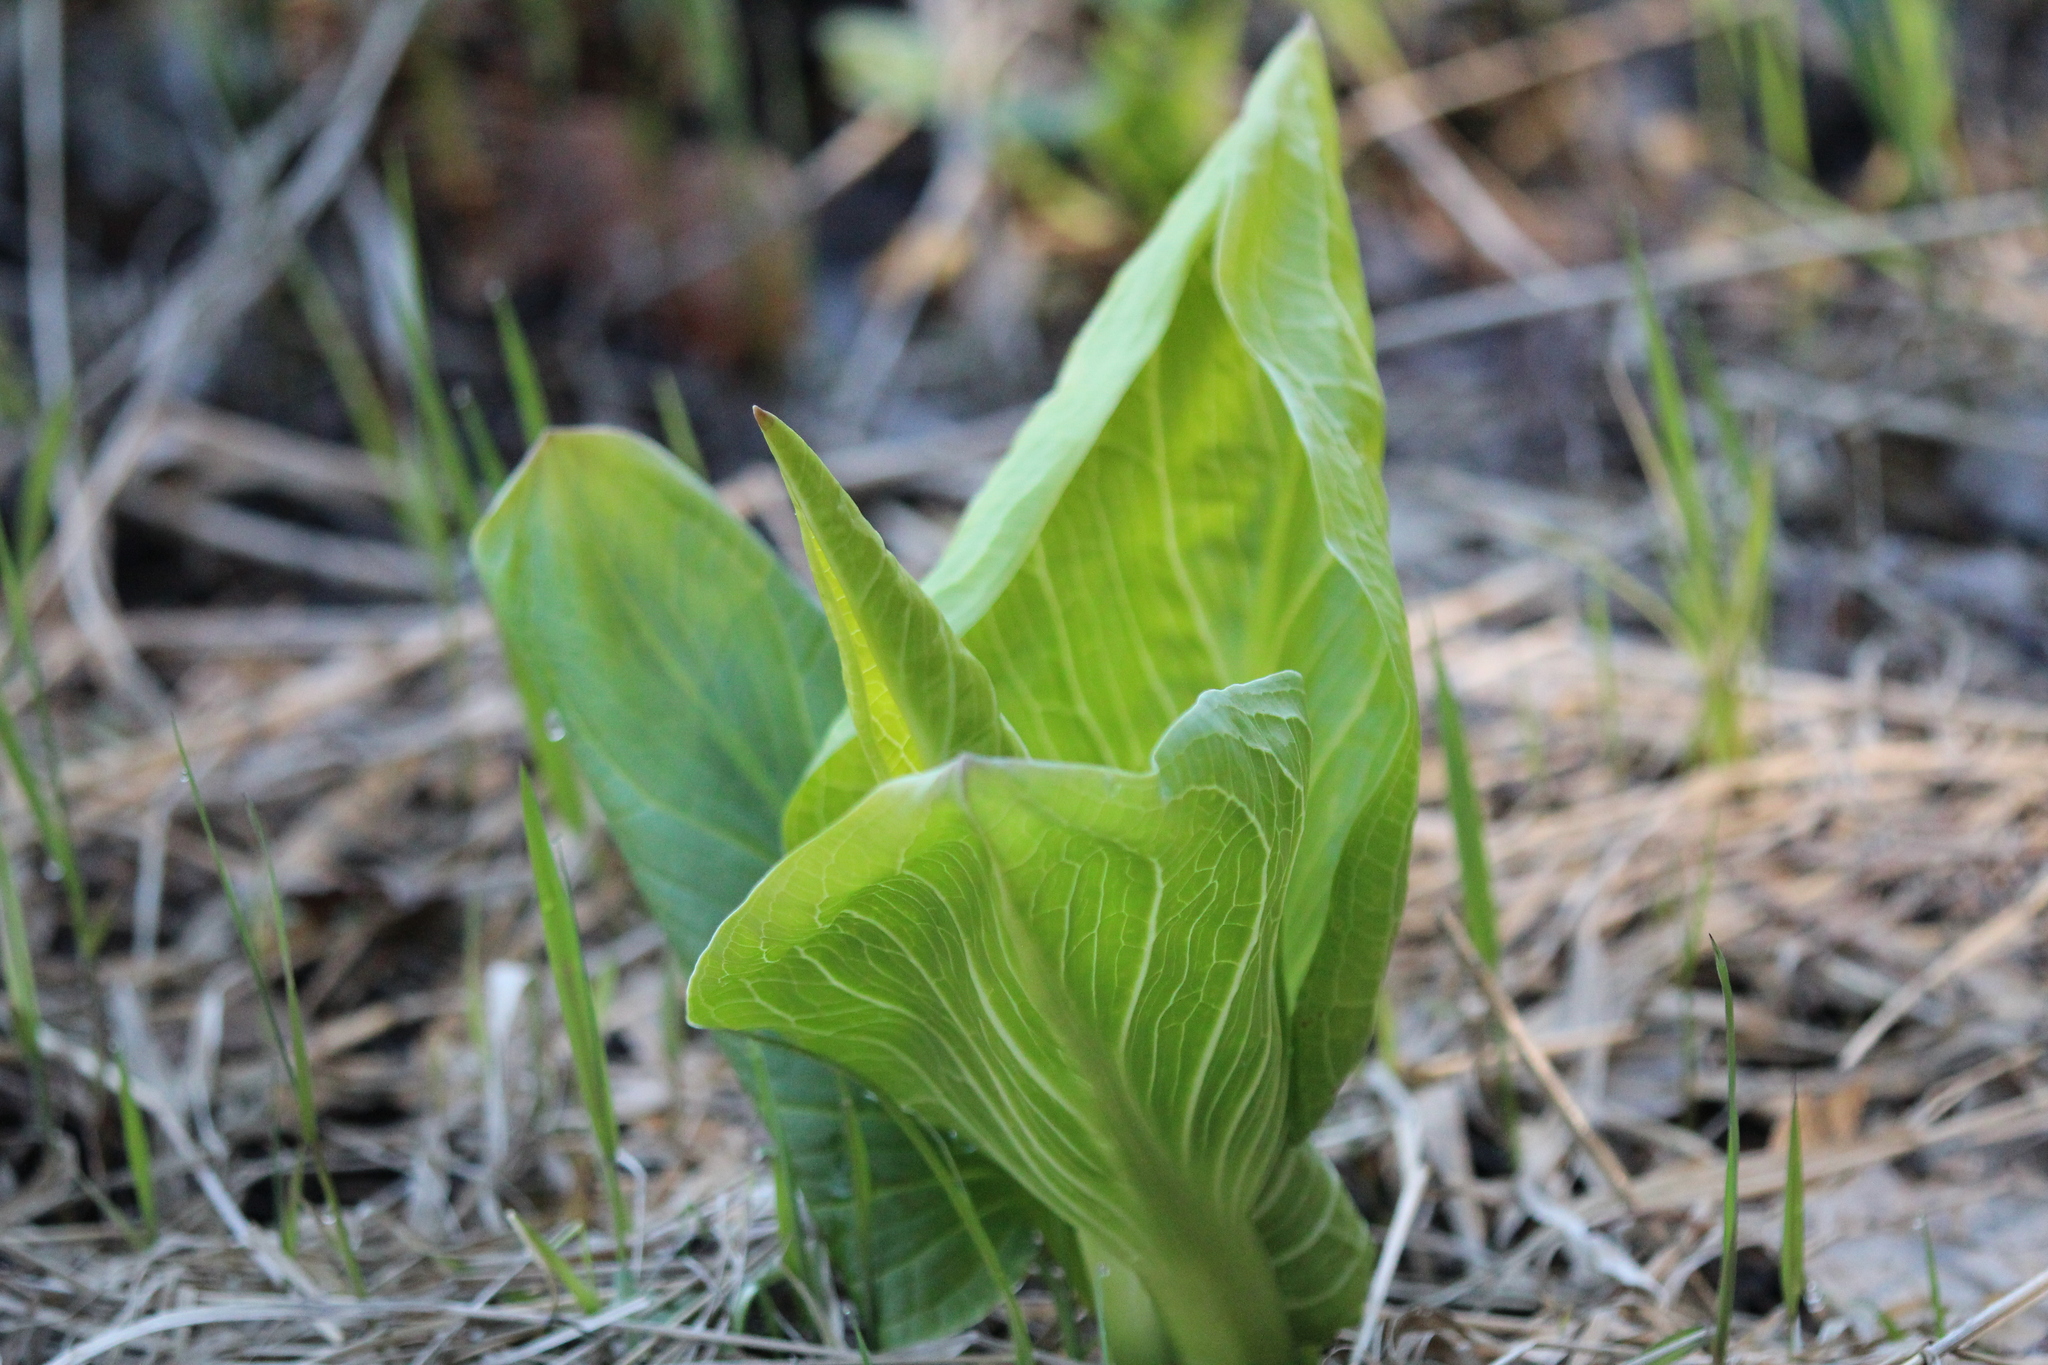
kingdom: Plantae
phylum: Tracheophyta
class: Liliopsida
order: Alismatales
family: Araceae
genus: Symplocarpus
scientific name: Symplocarpus foetidus
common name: Eastern skunk cabbage
